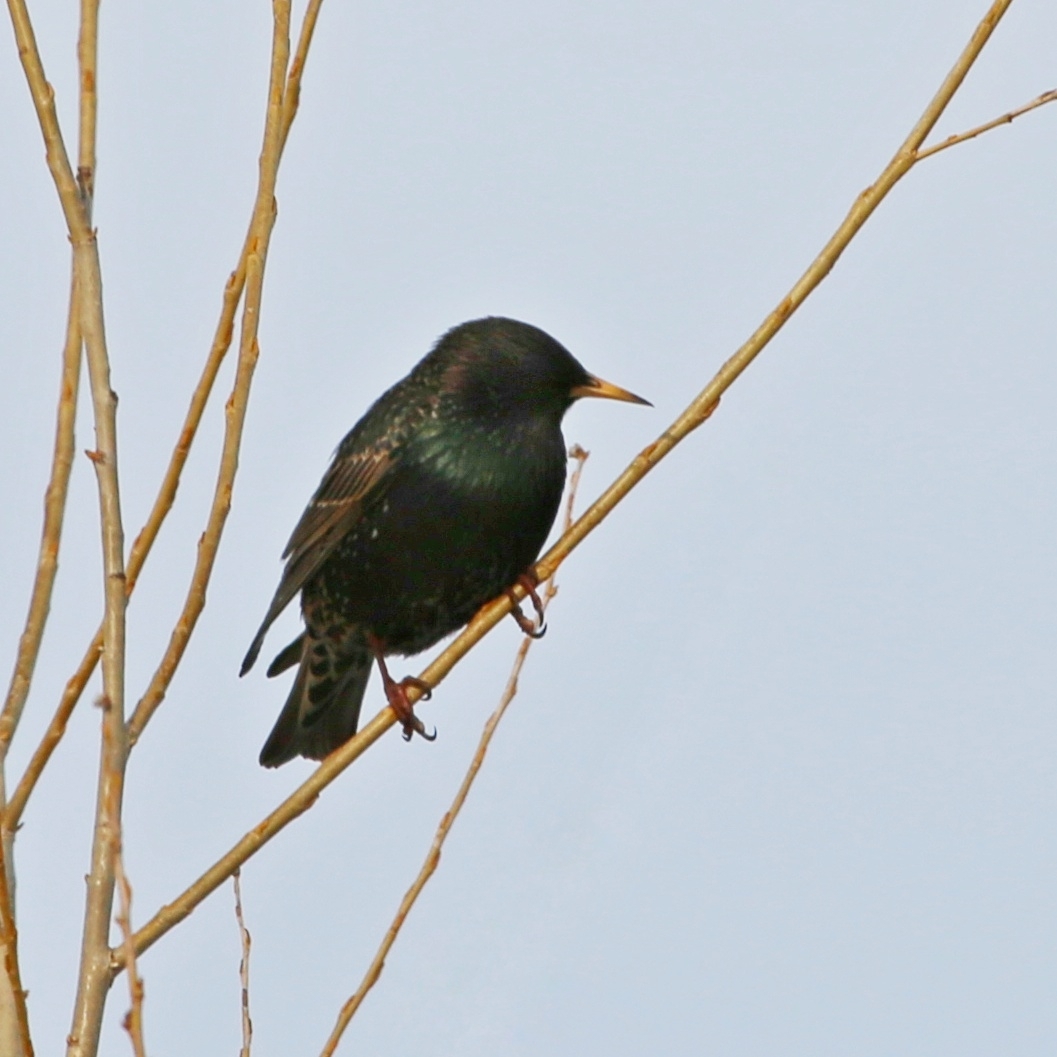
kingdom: Animalia
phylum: Chordata
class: Aves
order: Passeriformes
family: Sturnidae
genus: Sturnus
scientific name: Sturnus vulgaris
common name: Common starling
